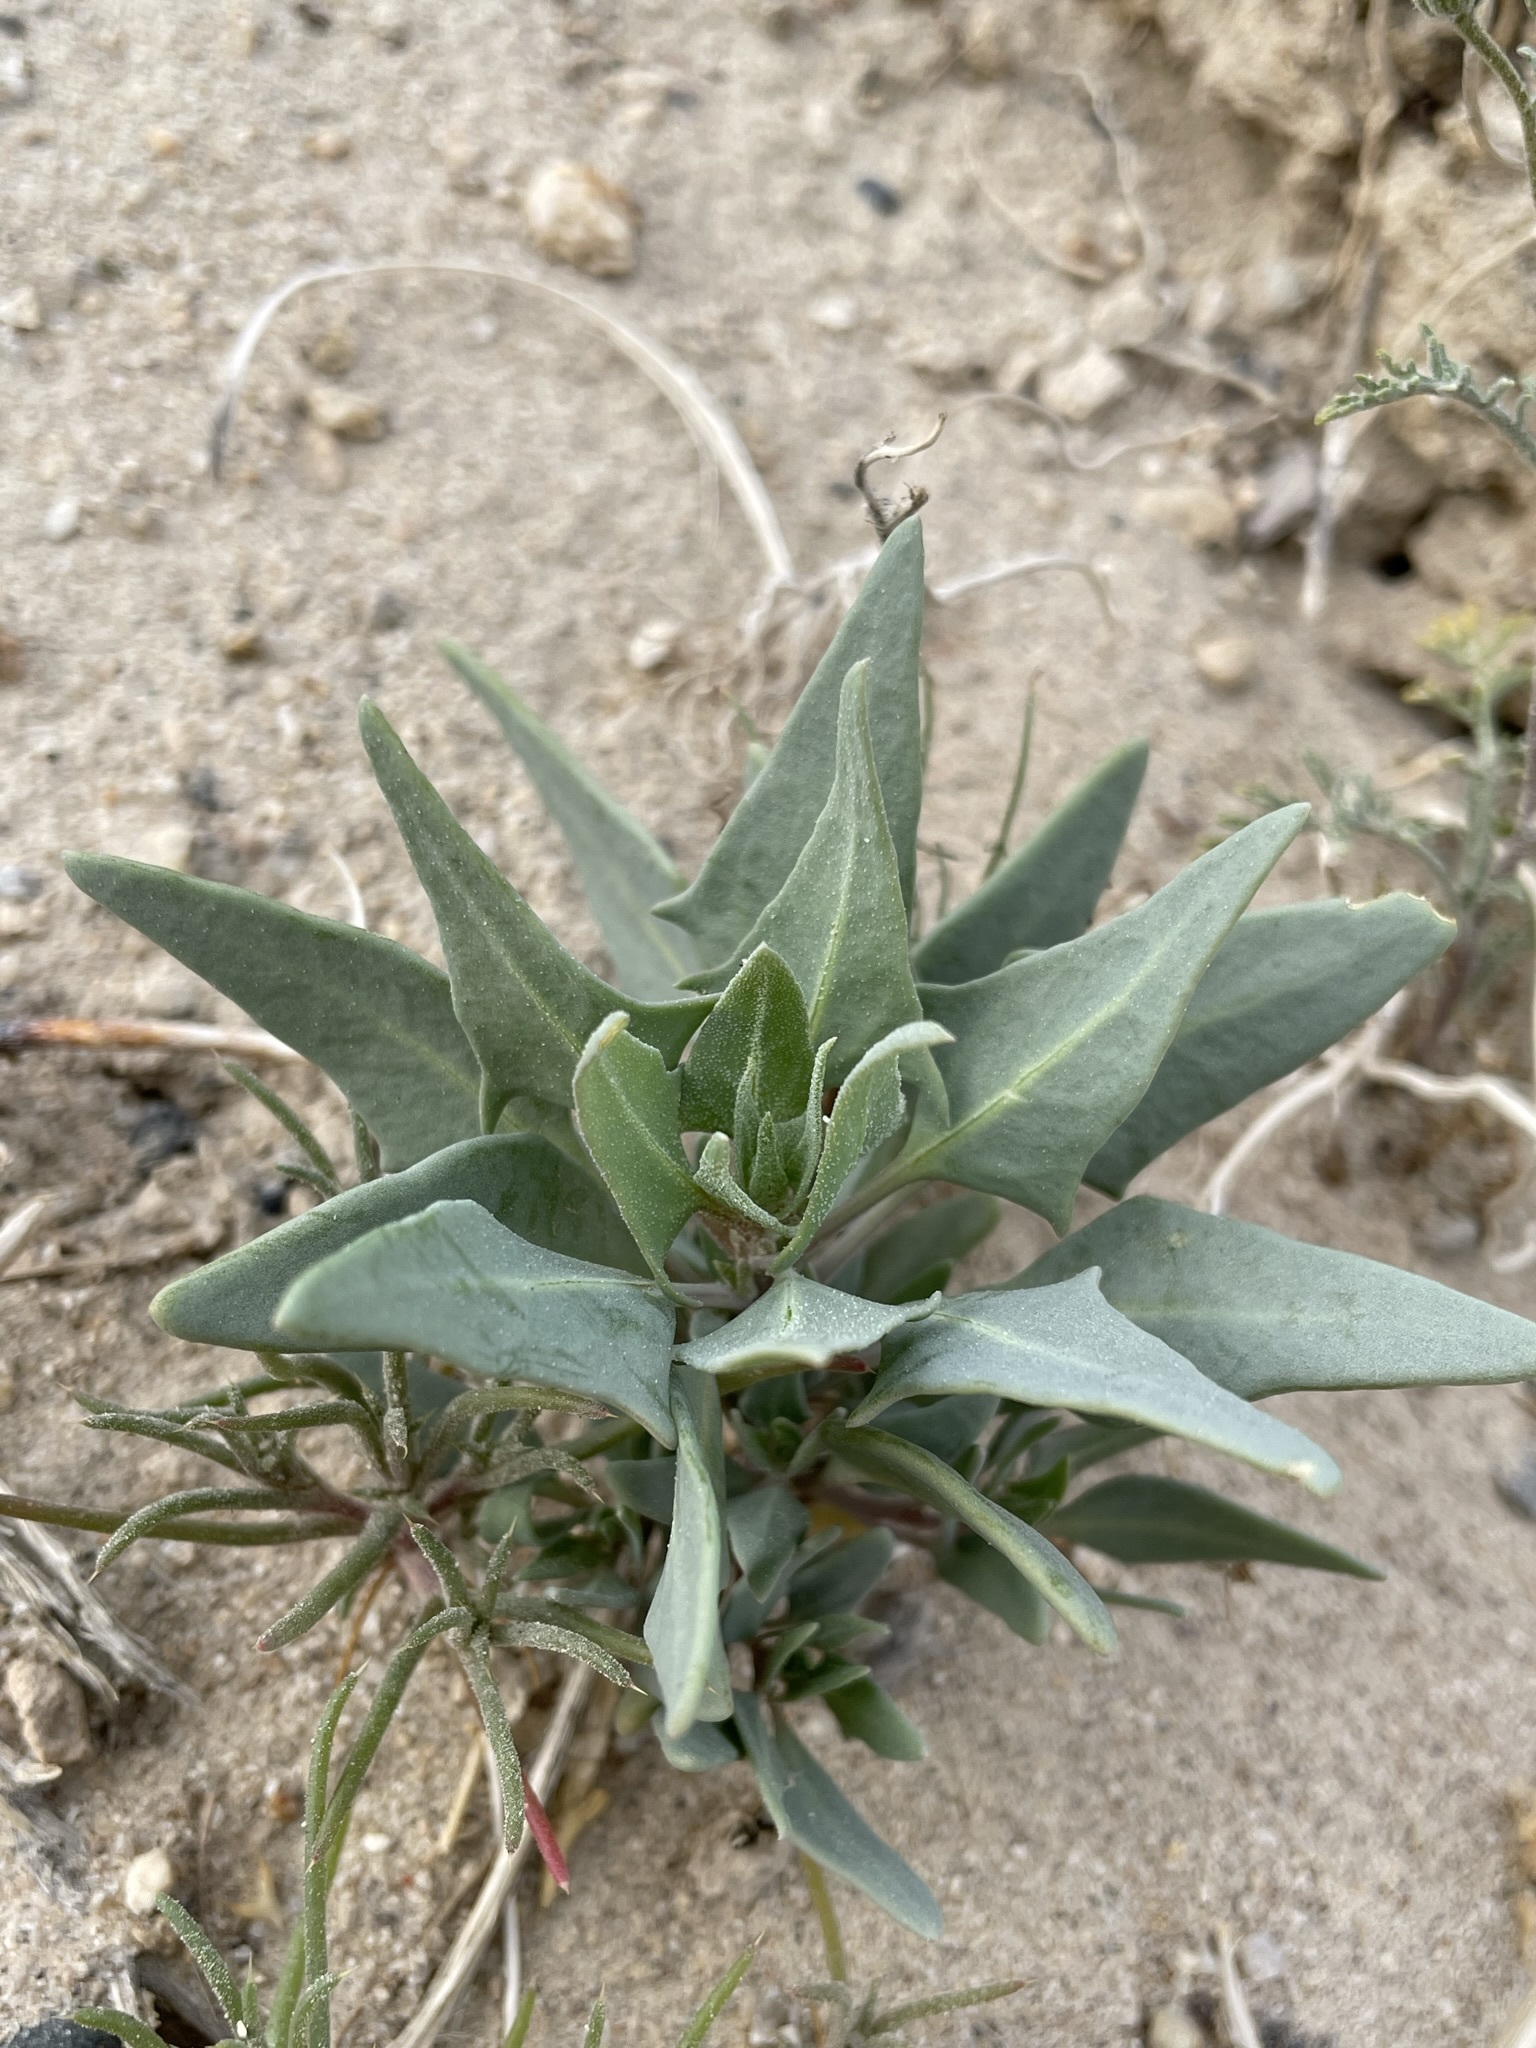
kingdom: Plantae
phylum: Tracheophyta
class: Magnoliopsida
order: Caryophyllales
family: Amaranthaceae
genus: Stutzia
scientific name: Stutzia covillei
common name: Coville's orach
